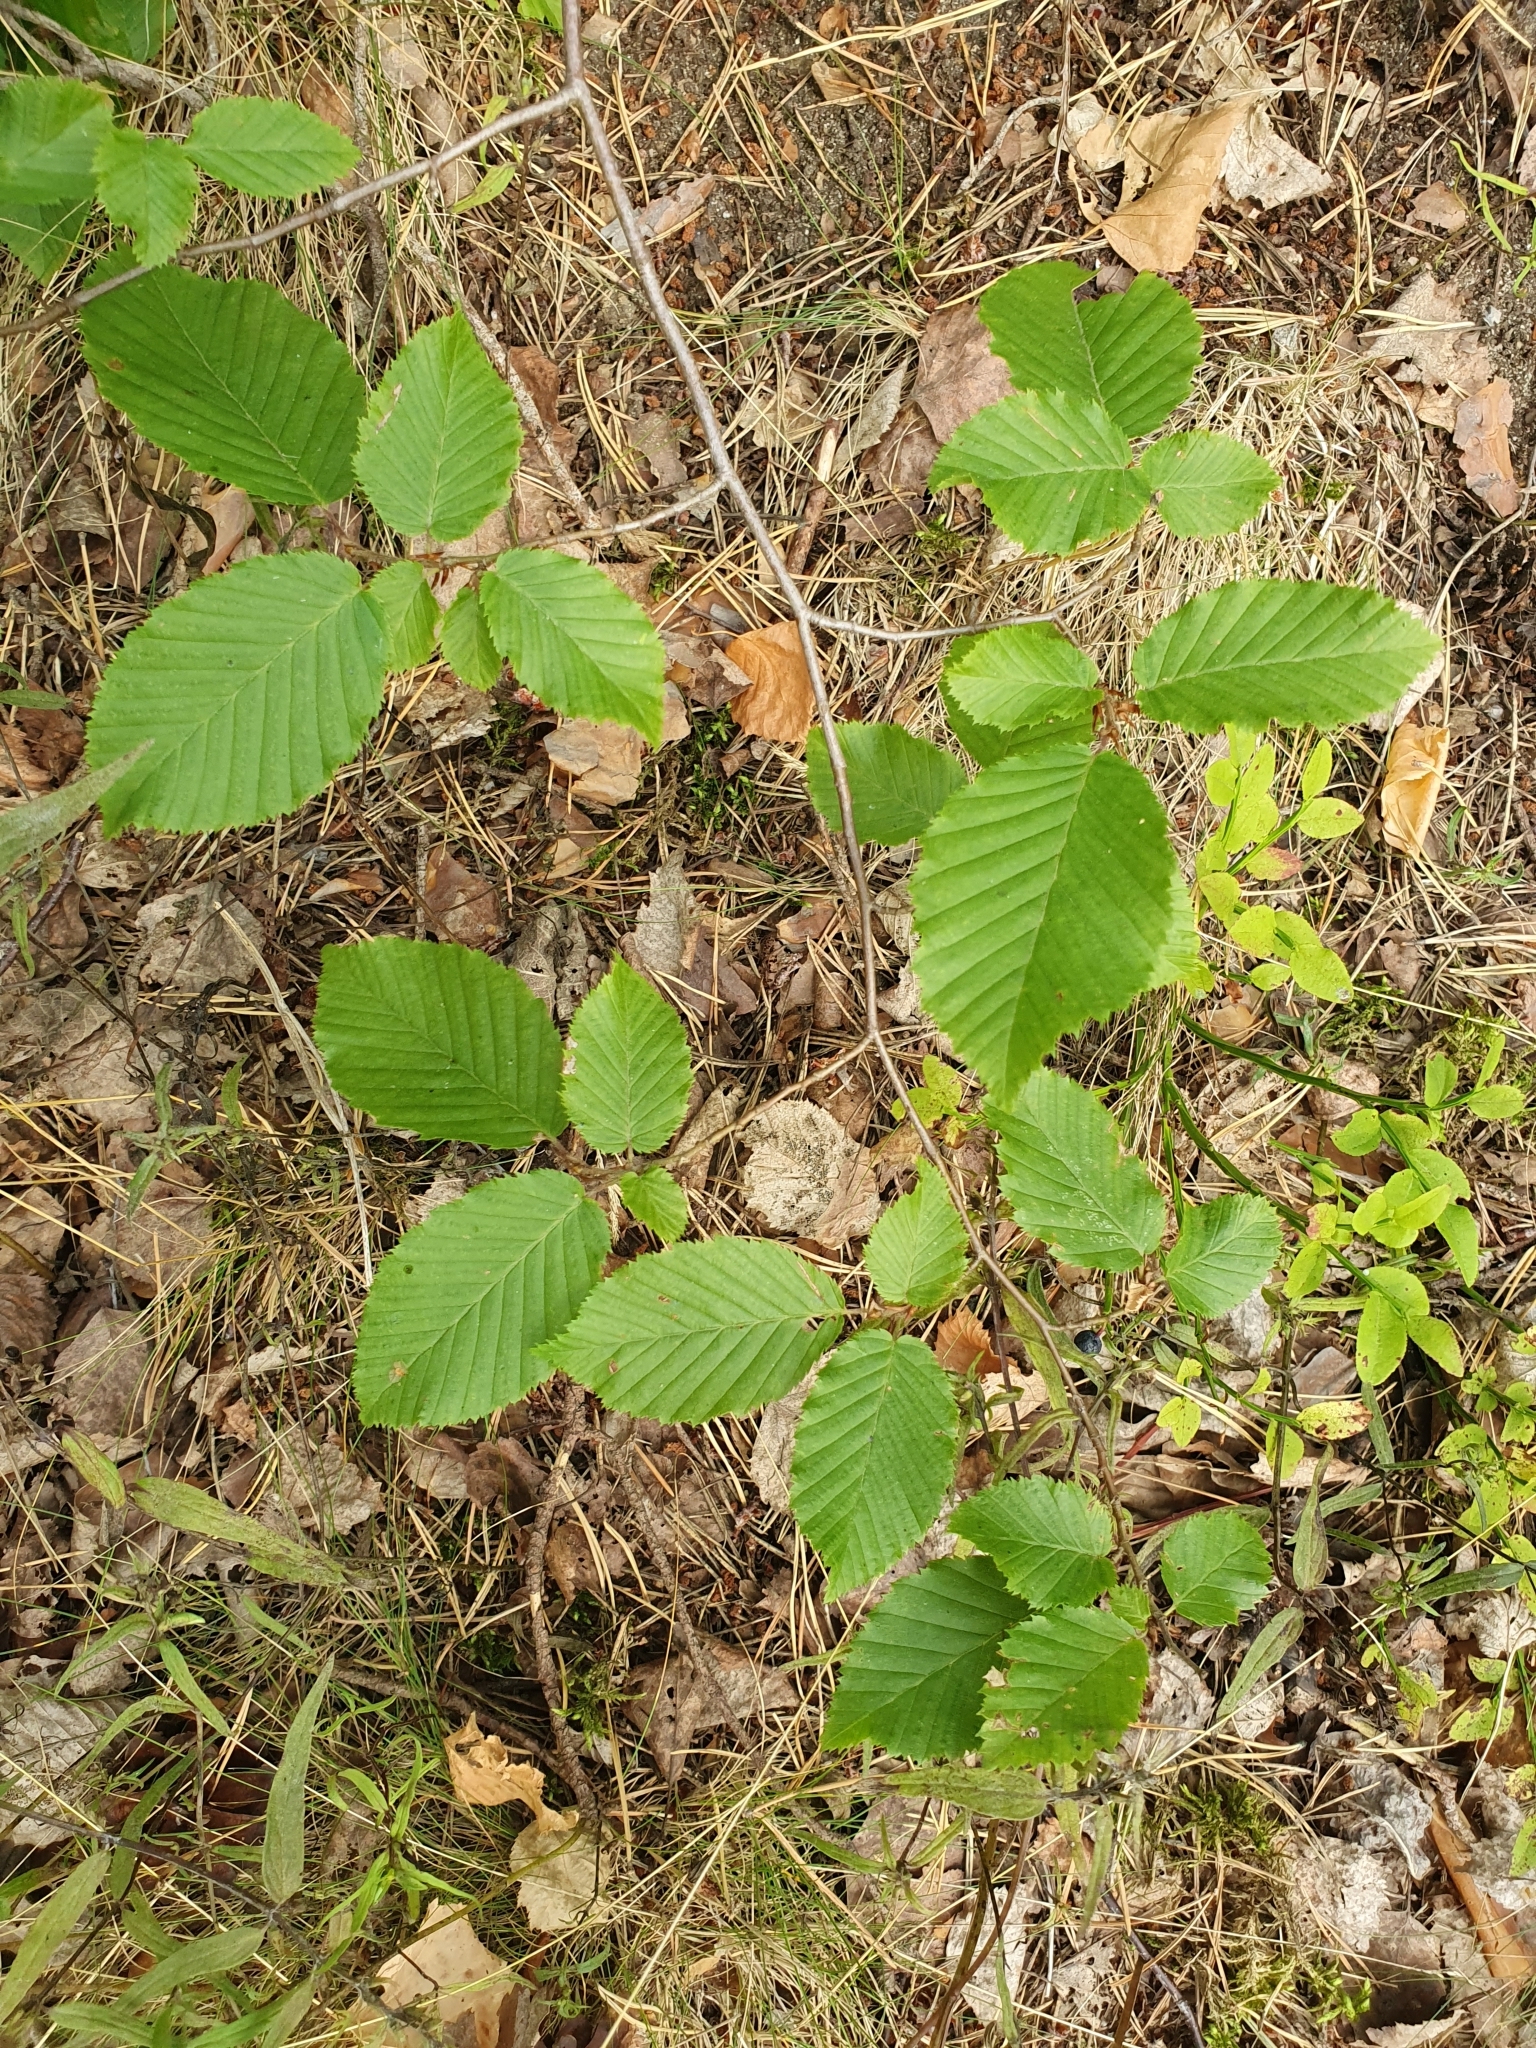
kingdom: Plantae
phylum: Tracheophyta
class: Magnoliopsida
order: Fagales
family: Betulaceae
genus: Carpinus
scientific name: Carpinus betulus
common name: Hornbeam
